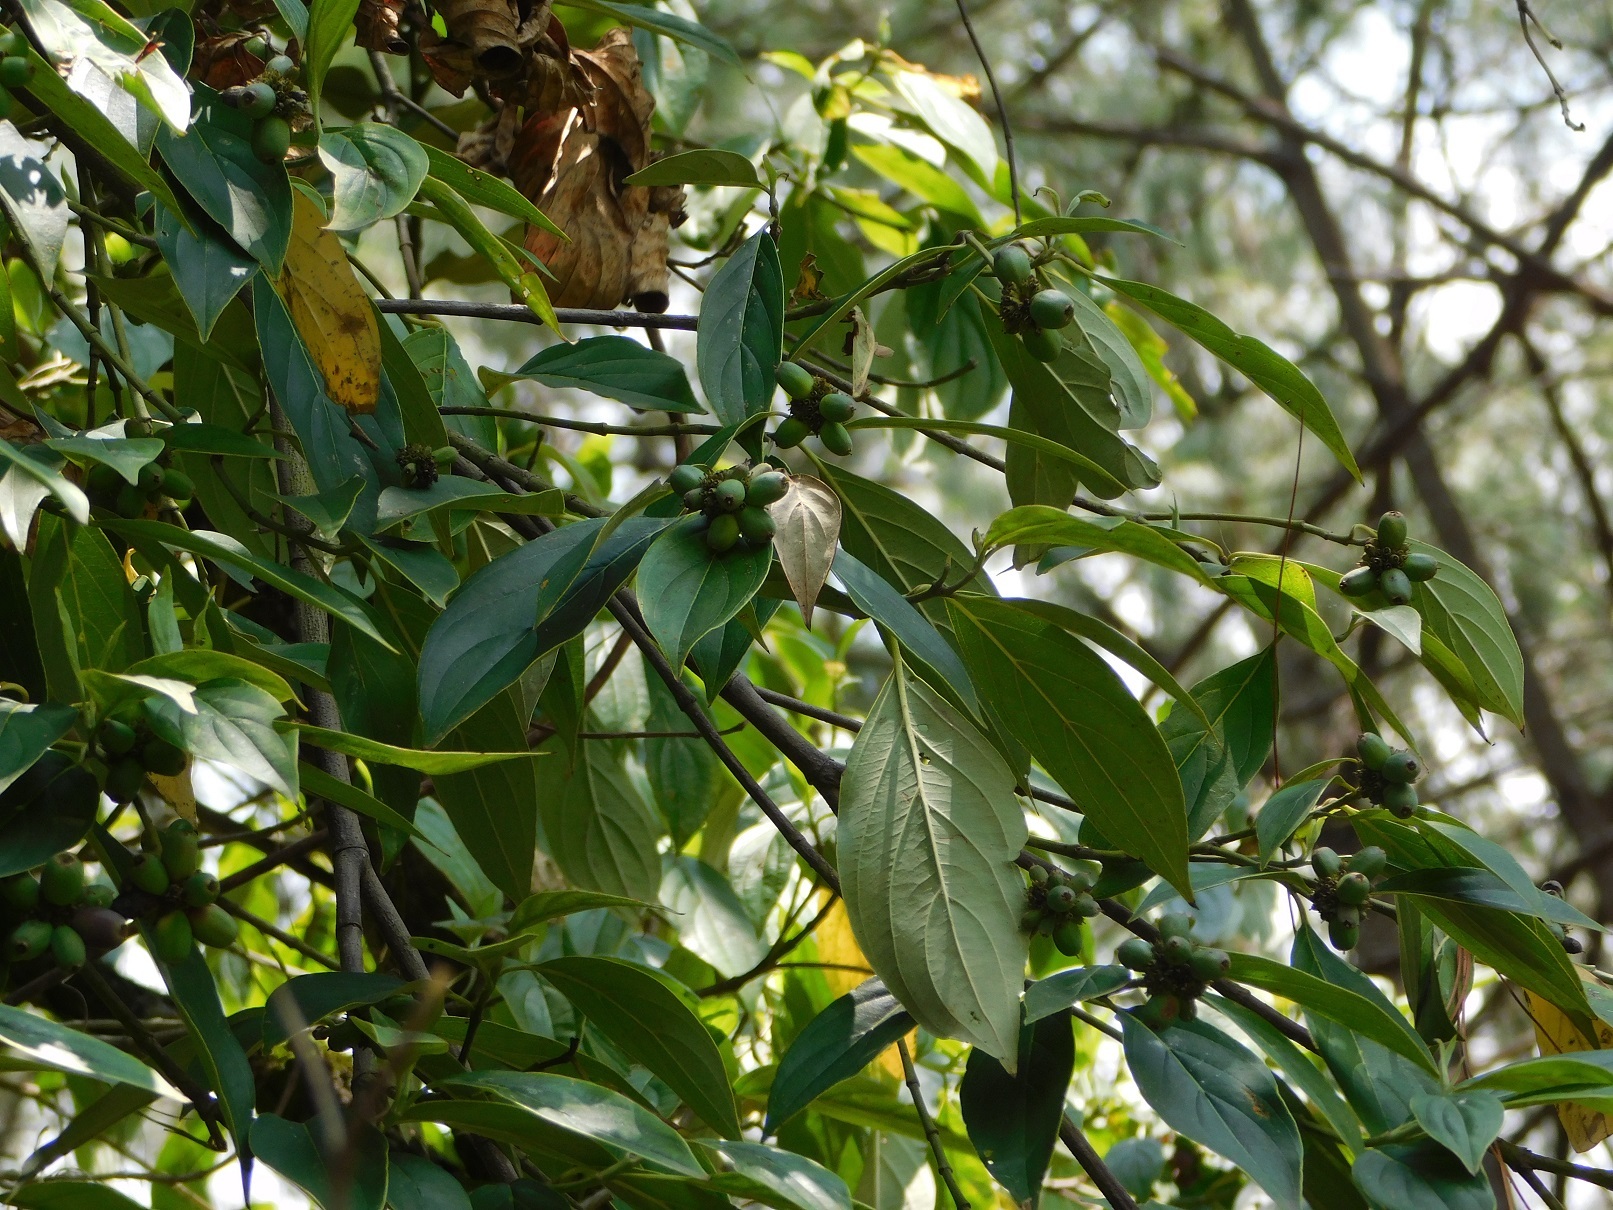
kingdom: Plantae
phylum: Tracheophyta
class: Magnoliopsida
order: Cornales
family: Cornaceae
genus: Cornus
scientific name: Cornus disciflora
